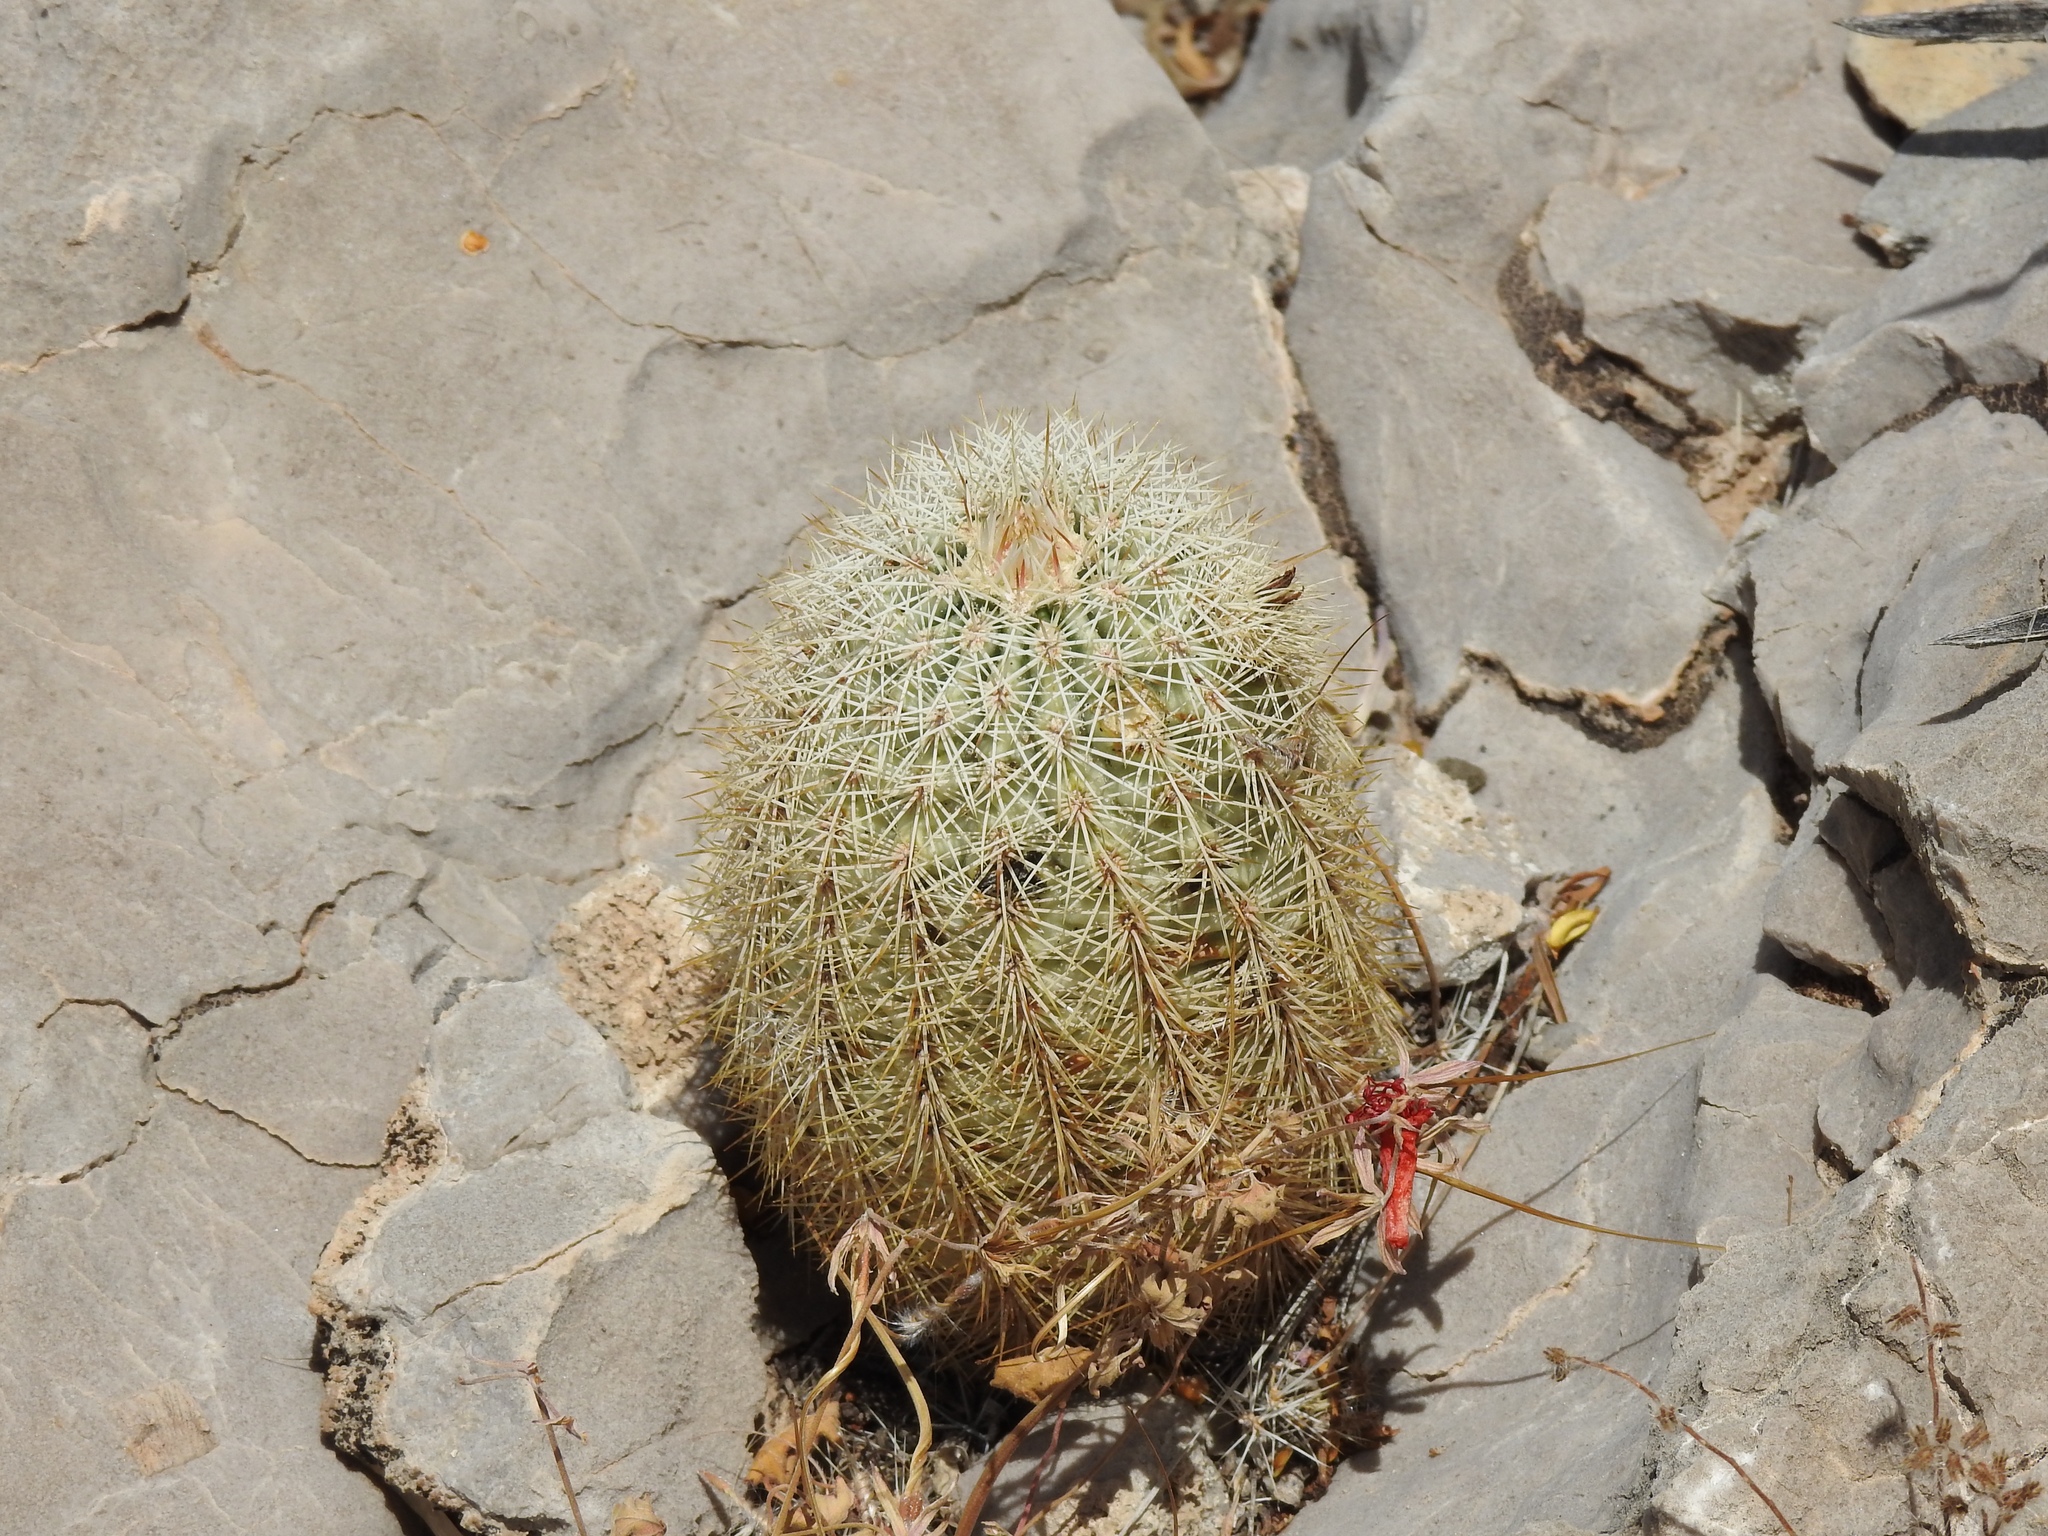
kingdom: Plantae
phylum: Tracheophyta
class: Magnoliopsida
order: Caryophyllales
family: Cactaceae
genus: Echinocereus
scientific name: Echinocereus dasyacanthus
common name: Spiny hedgehog cactus
